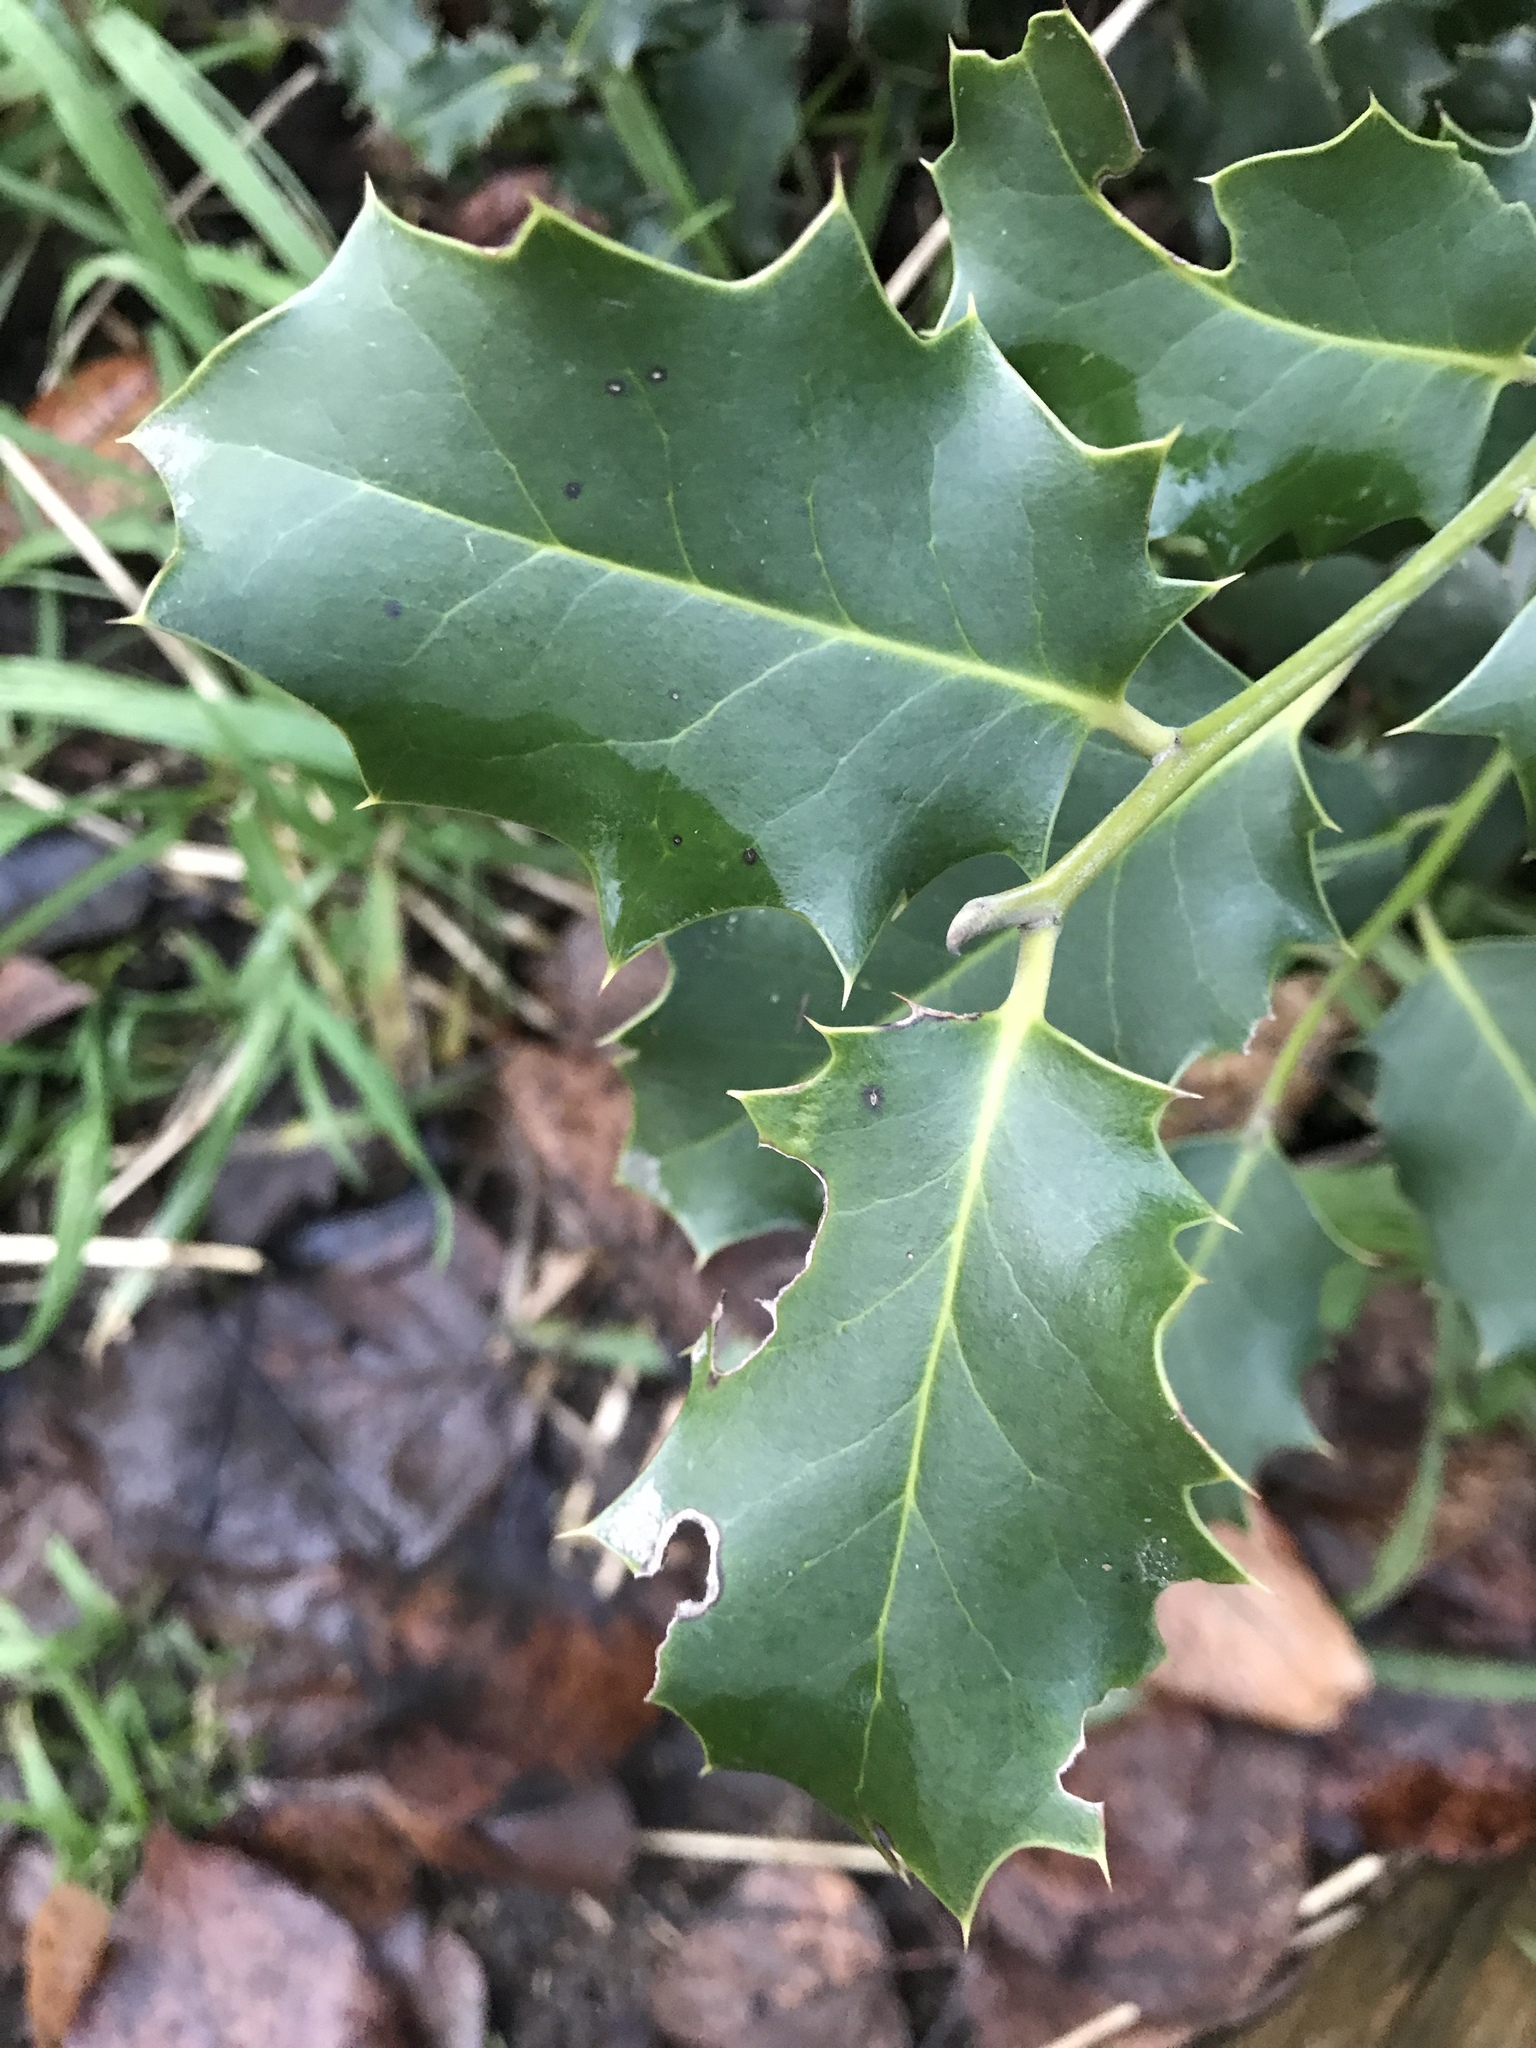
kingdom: Plantae
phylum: Tracheophyta
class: Magnoliopsida
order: Aquifoliales
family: Aquifoliaceae
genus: Ilex
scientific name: Ilex aquifolium
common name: English holly
